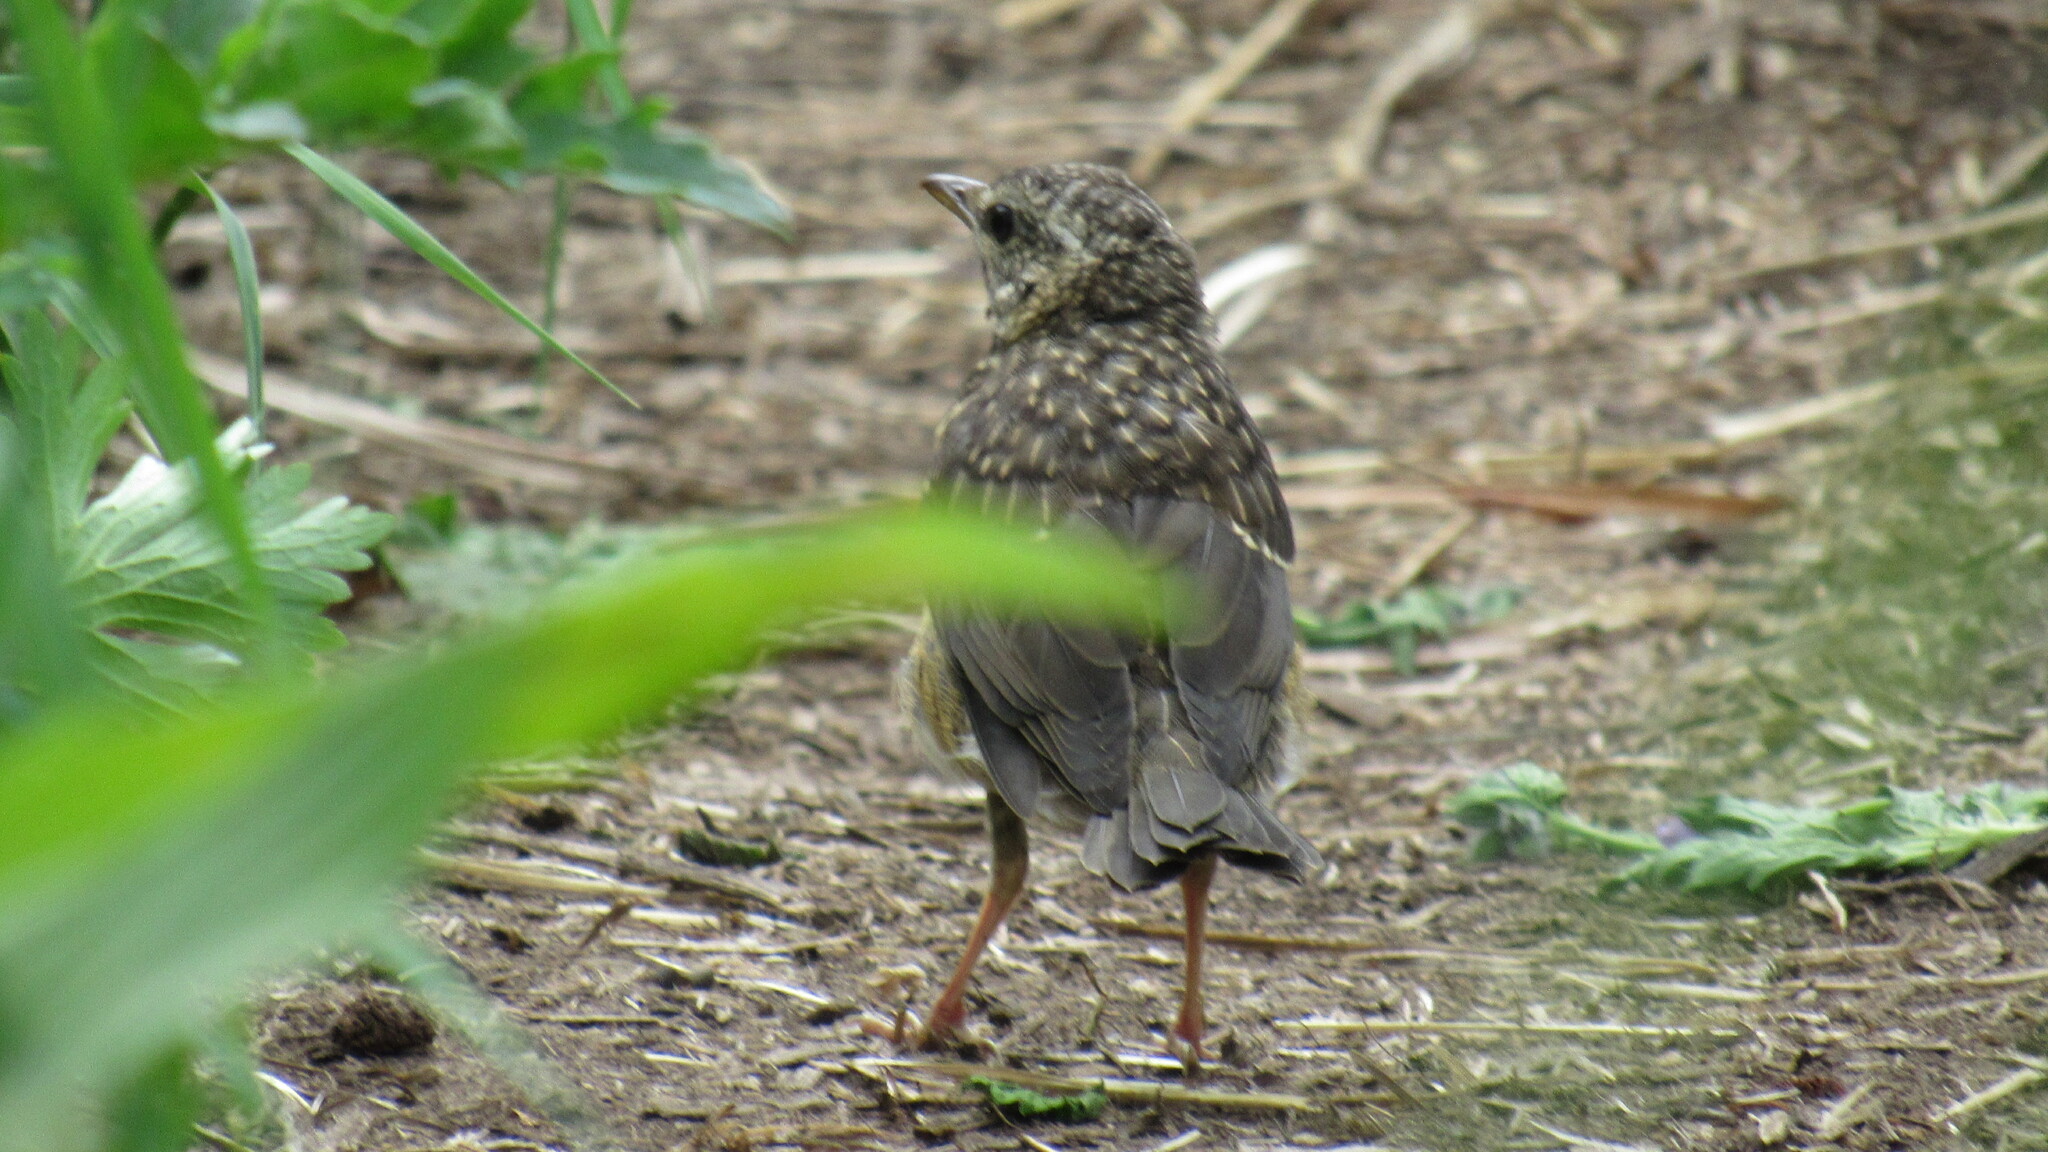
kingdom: Animalia
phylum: Chordata
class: Aves
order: Passeriformes
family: Muscicapidae
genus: Luscinia
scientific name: Luscinia calliope
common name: Siberian rubythroat
